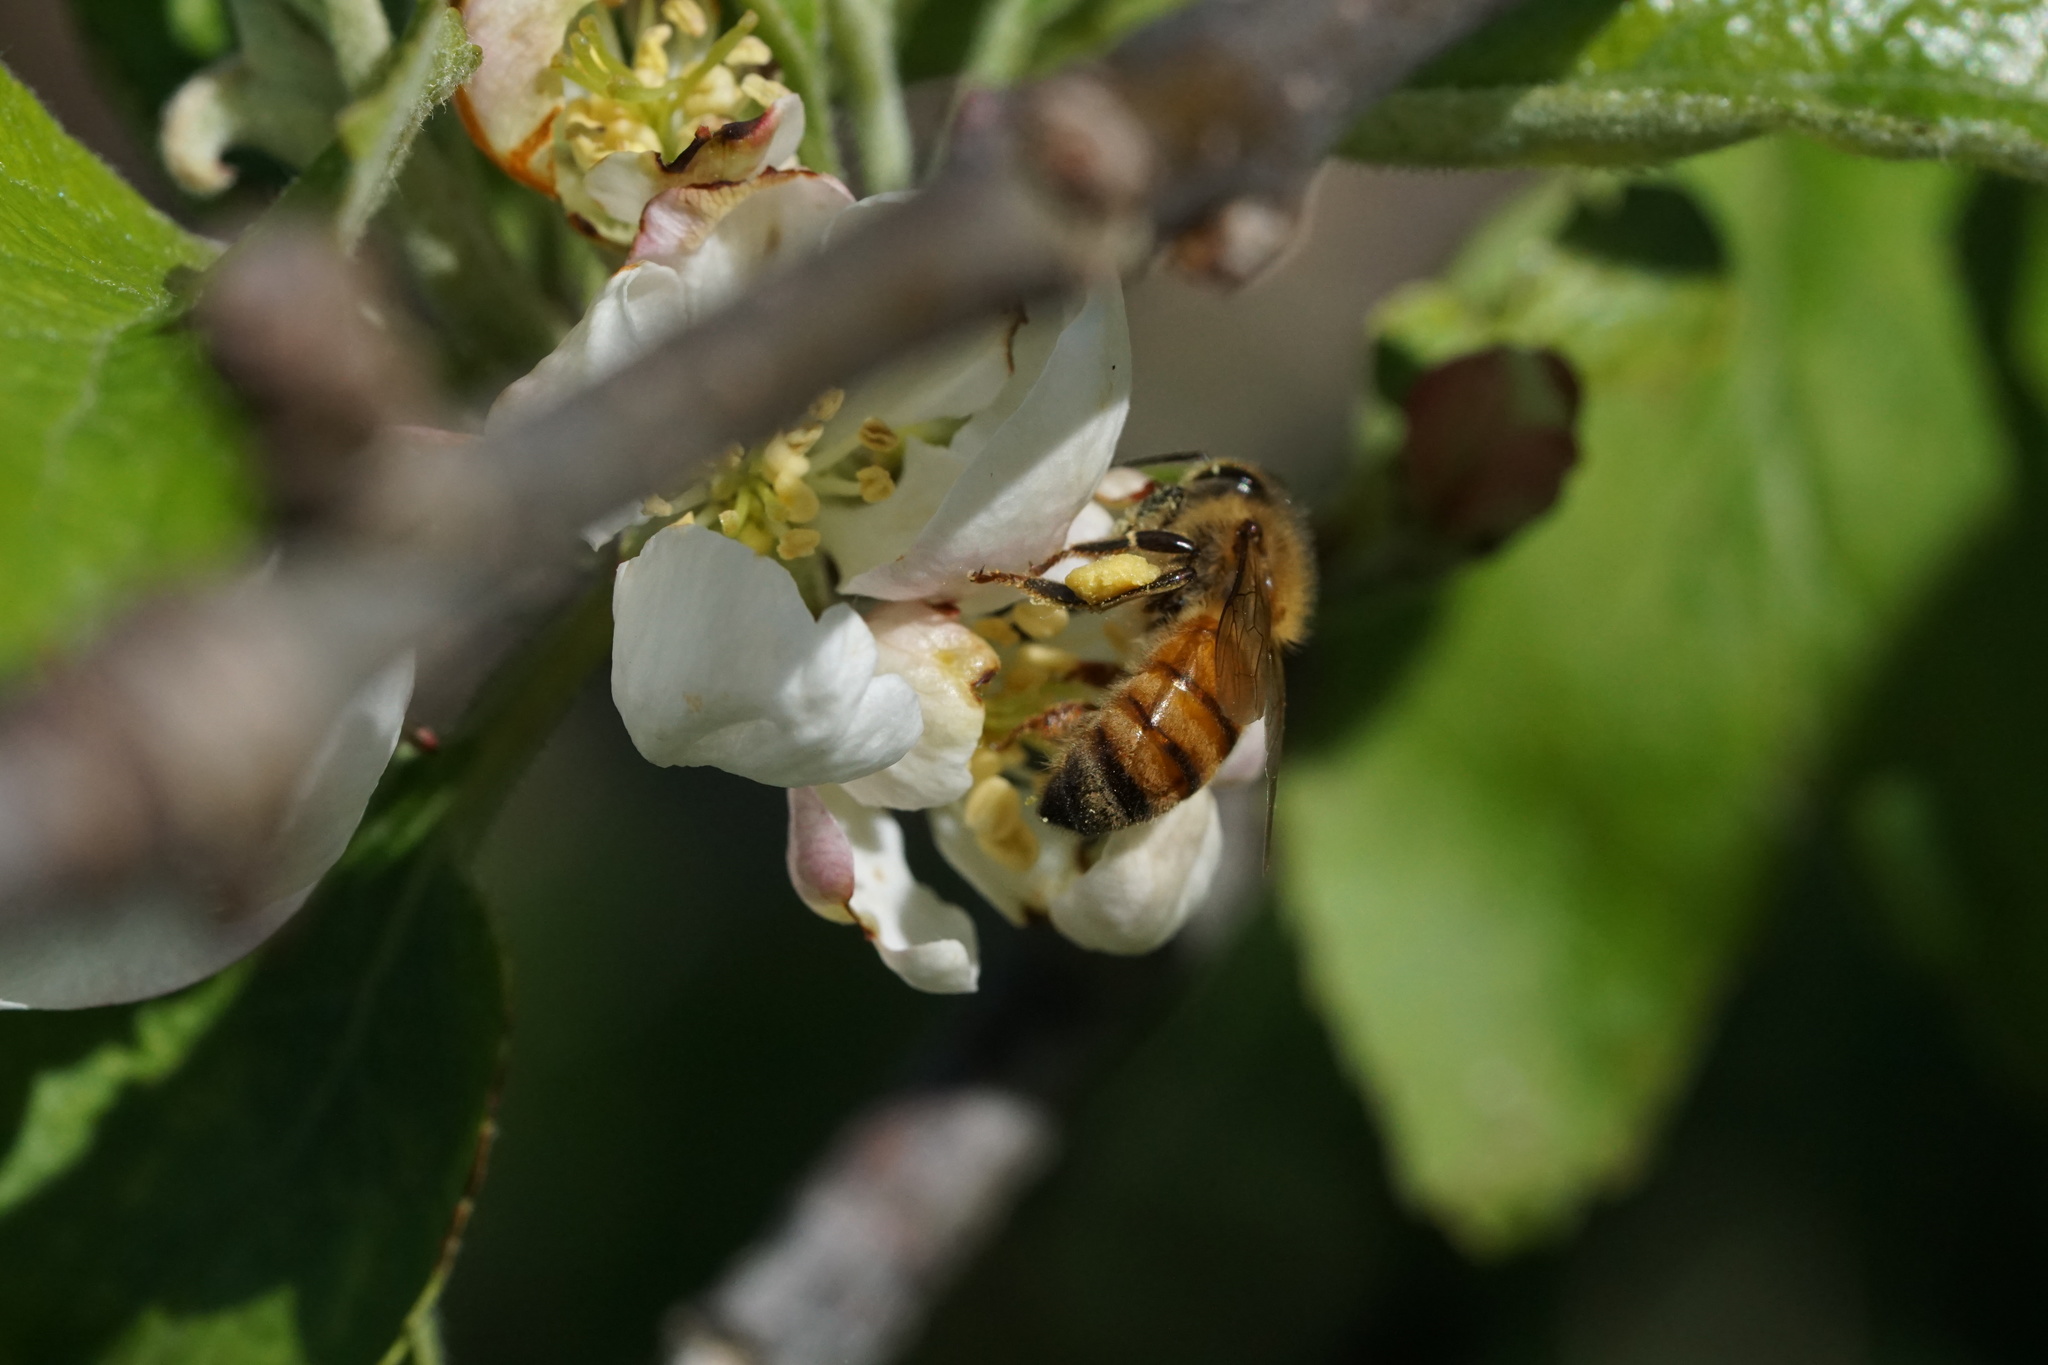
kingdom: Animalia
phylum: Arthropoda
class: Insecta
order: Hymenoptera
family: Apidae
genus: Apis
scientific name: Apis mellifera
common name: Honey bee
